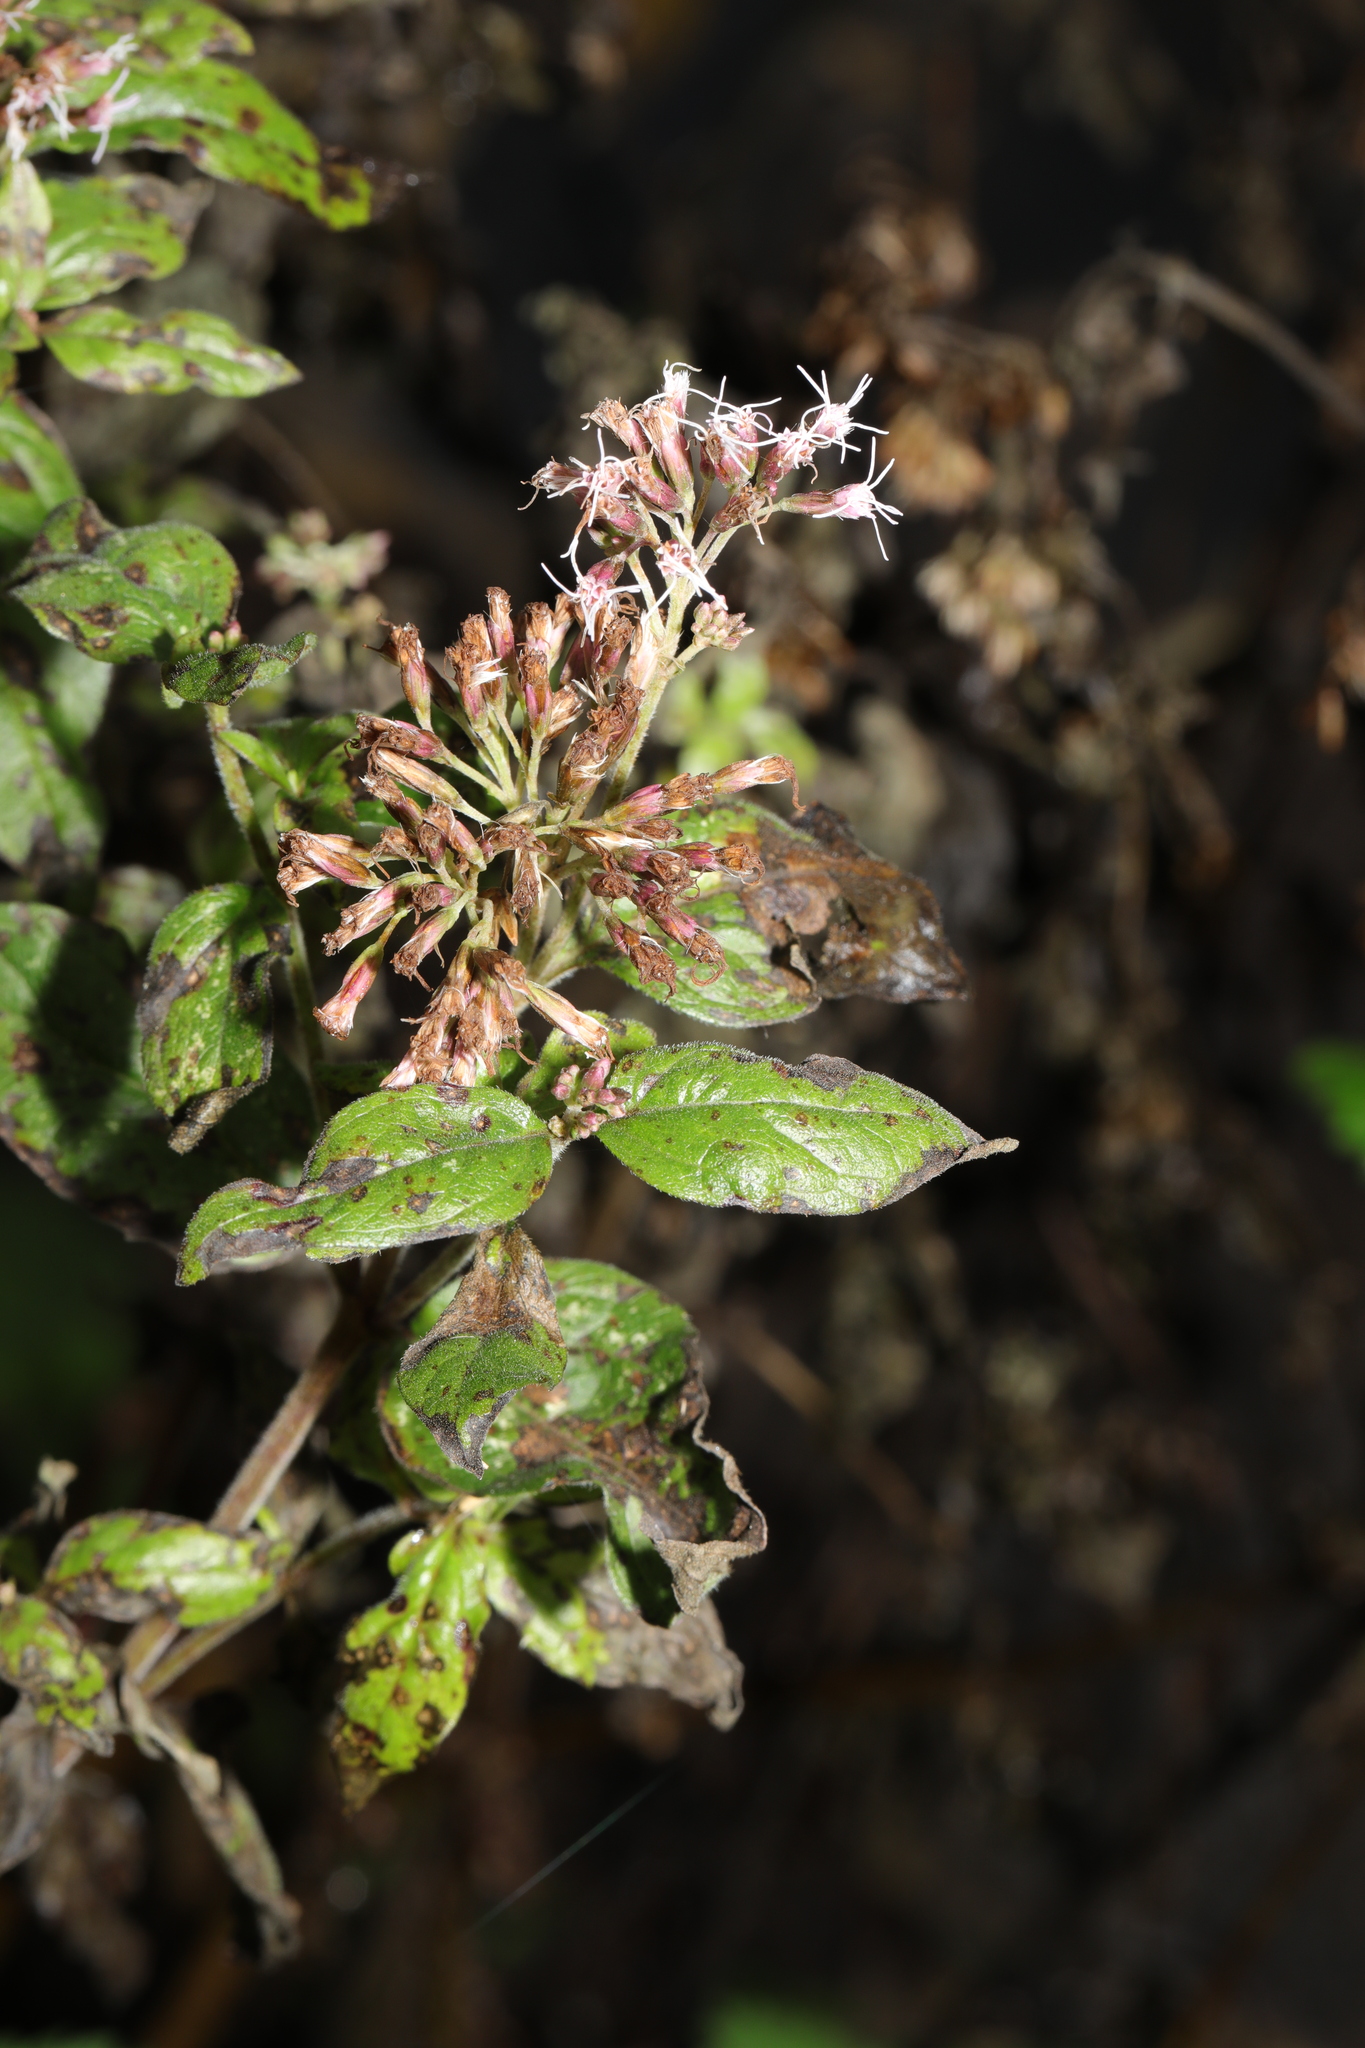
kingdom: Plantae
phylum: Tracheophyta
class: Magnoliopsida
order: Asterales
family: Asteraceae
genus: Eupatorium
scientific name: Eupatorium cannabinum
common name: Hemp-agrimony
